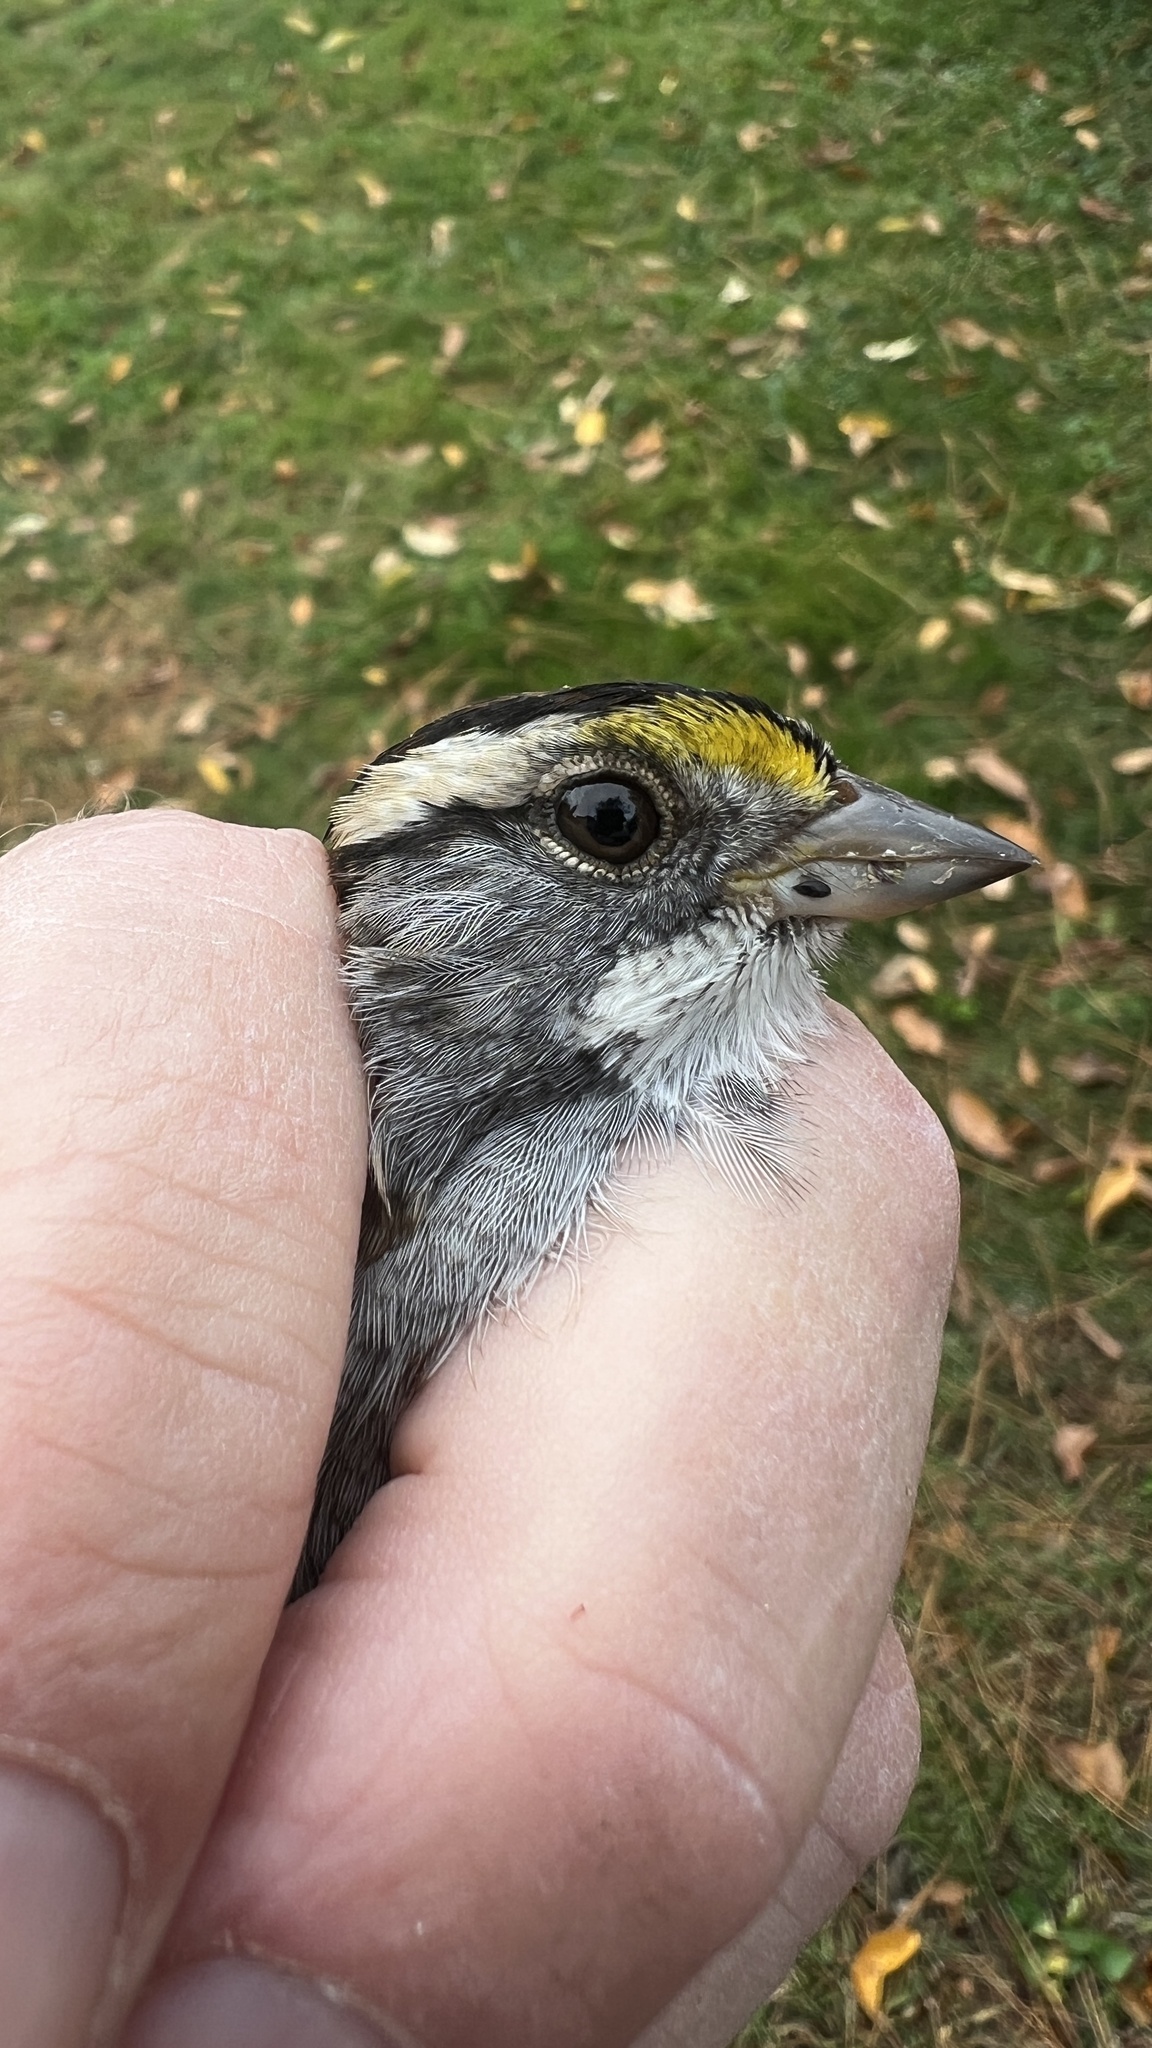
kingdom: Animalia
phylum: Chordata
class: Aves
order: Passeriformes
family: Passerellidae
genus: Zonotrichia
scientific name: Zonotrichia albicollis
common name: White-throated sparrow
